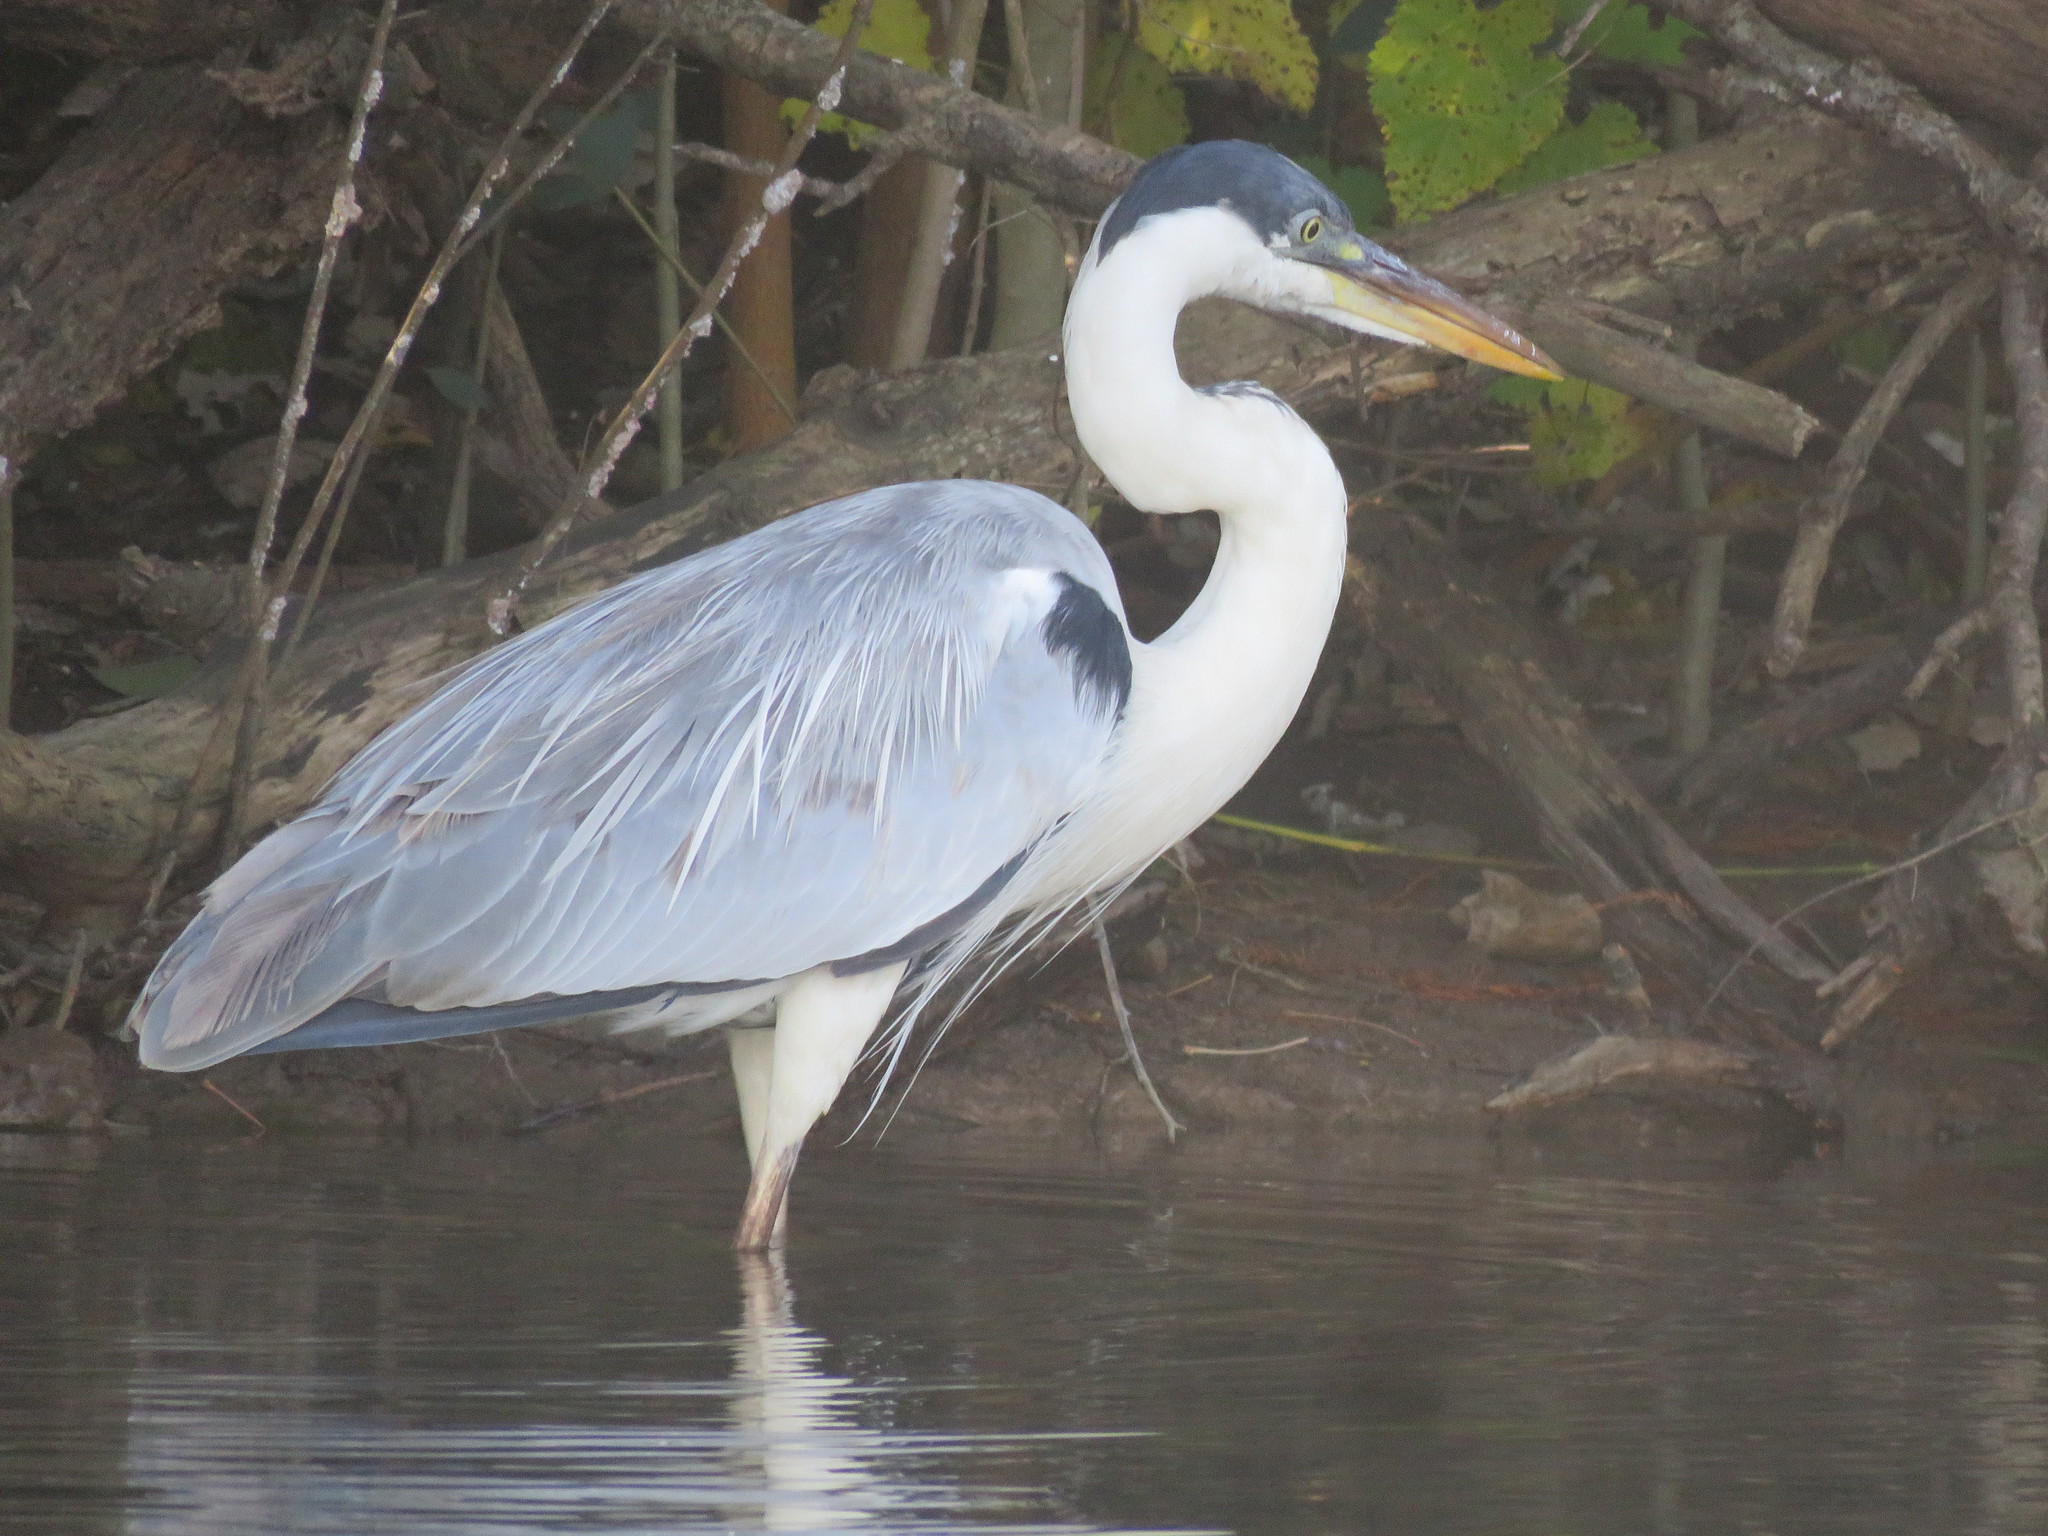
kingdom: Animalia
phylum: Chordata
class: Aves
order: Pelecaniformes
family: Ardeidae
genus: Ardea
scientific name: Ardea cocoi
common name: Cocoi heron
